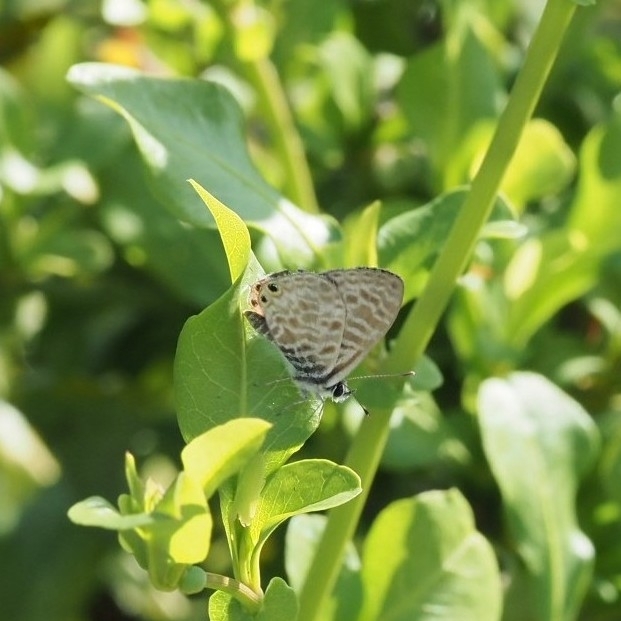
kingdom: Animalia
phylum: Arthropoda
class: Insecta
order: Lepidoptera
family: Lycaenidae
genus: Leptotes
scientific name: Leptotes pirithous
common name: Lang's short-tailed blue
